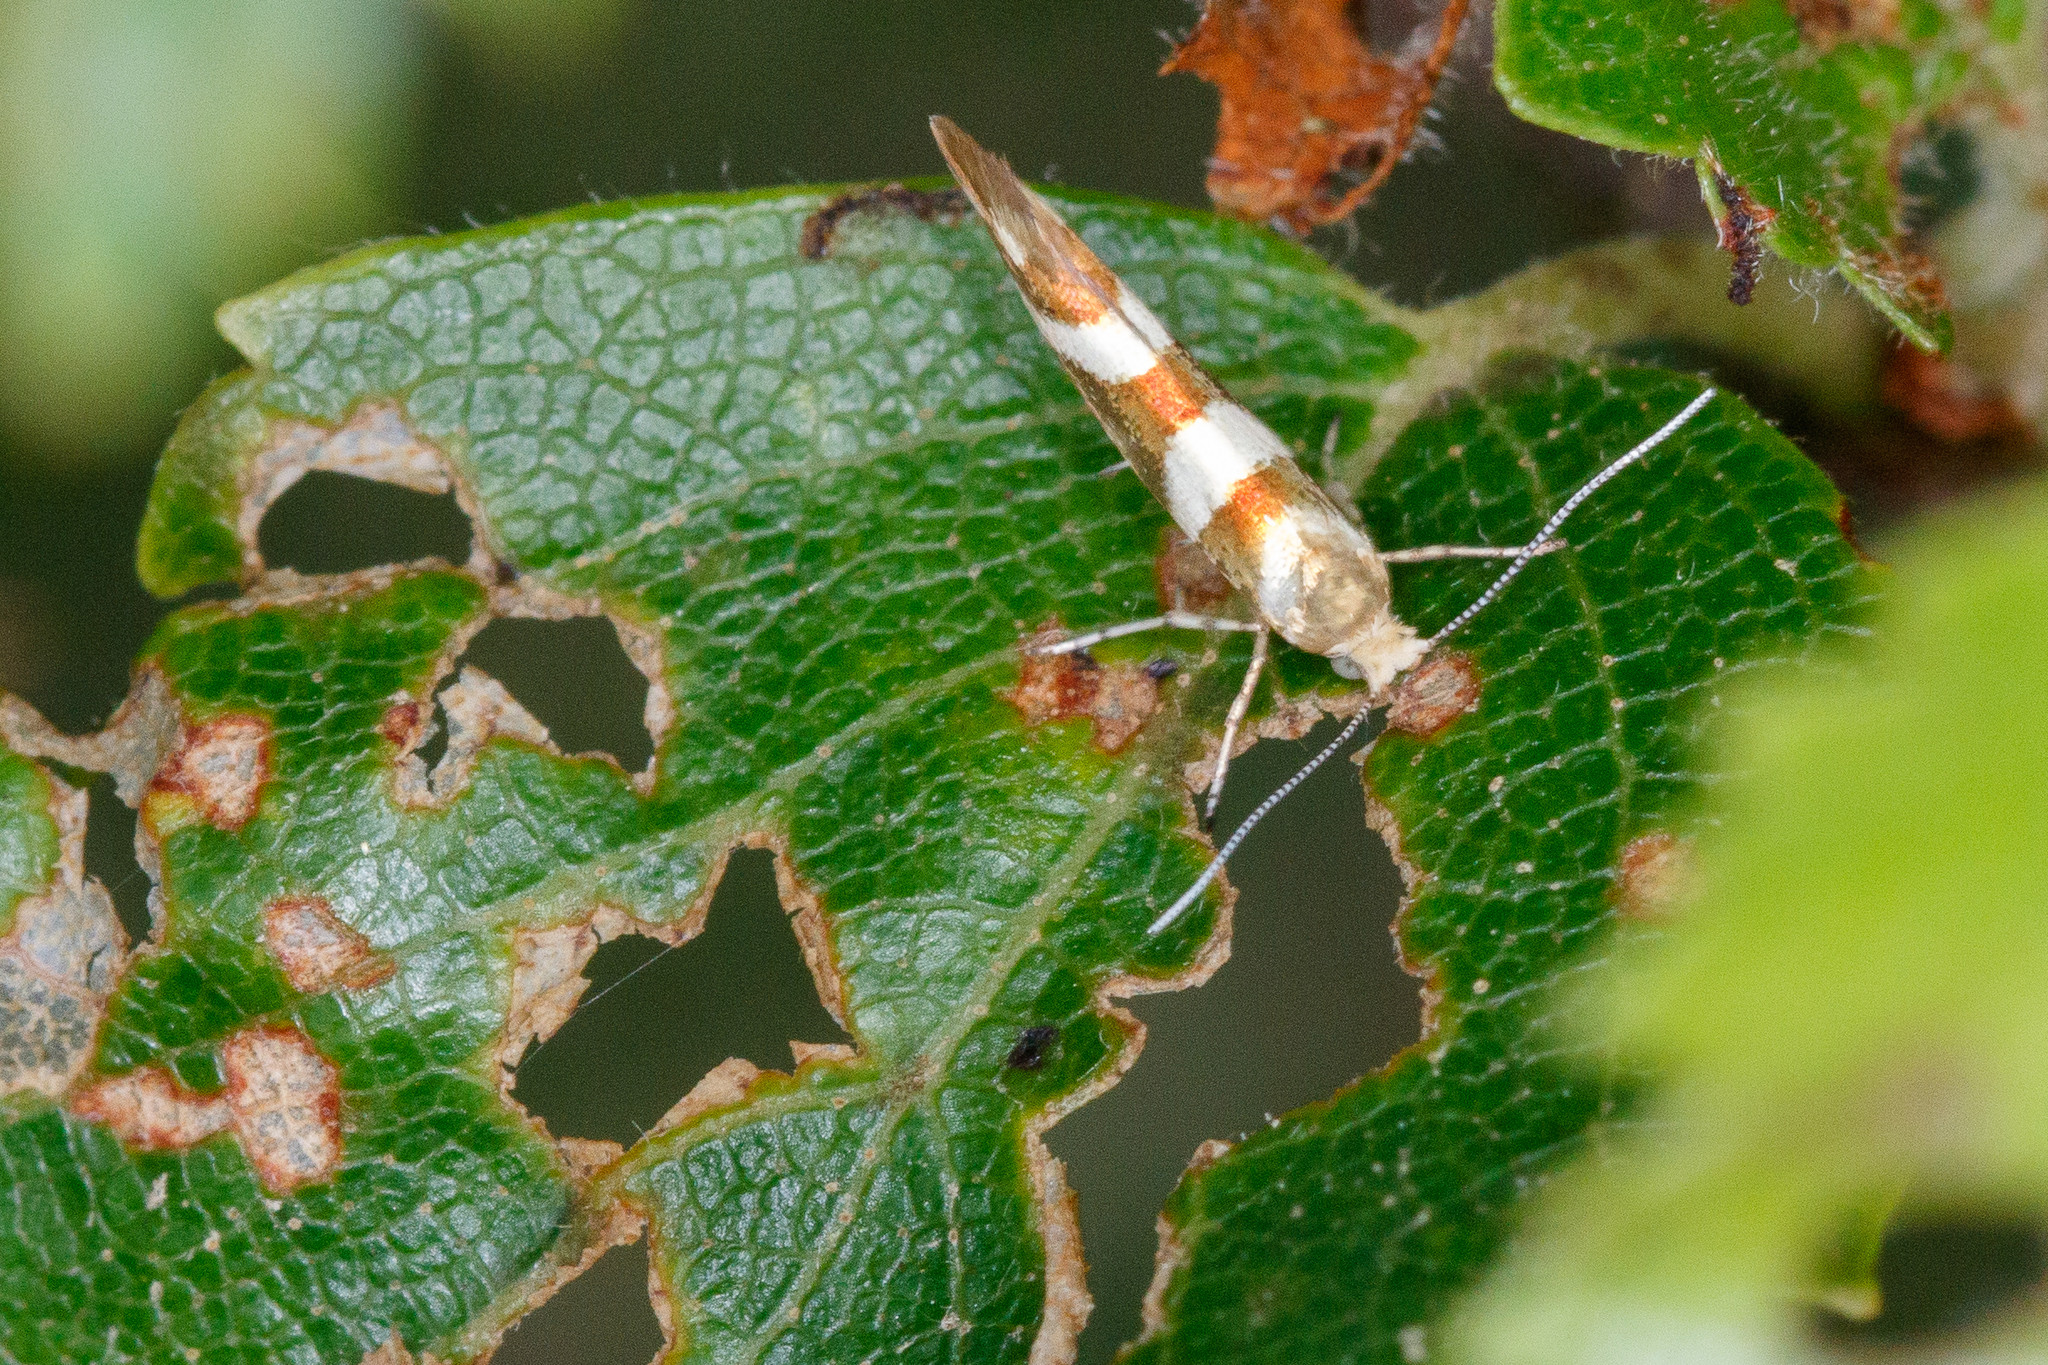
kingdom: Animalia
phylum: Arthropoda
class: Insecta
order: Lepidoptera
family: Argyresthiidae
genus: Argyresthia
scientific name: Argyresthia goedartella
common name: Golden argent
